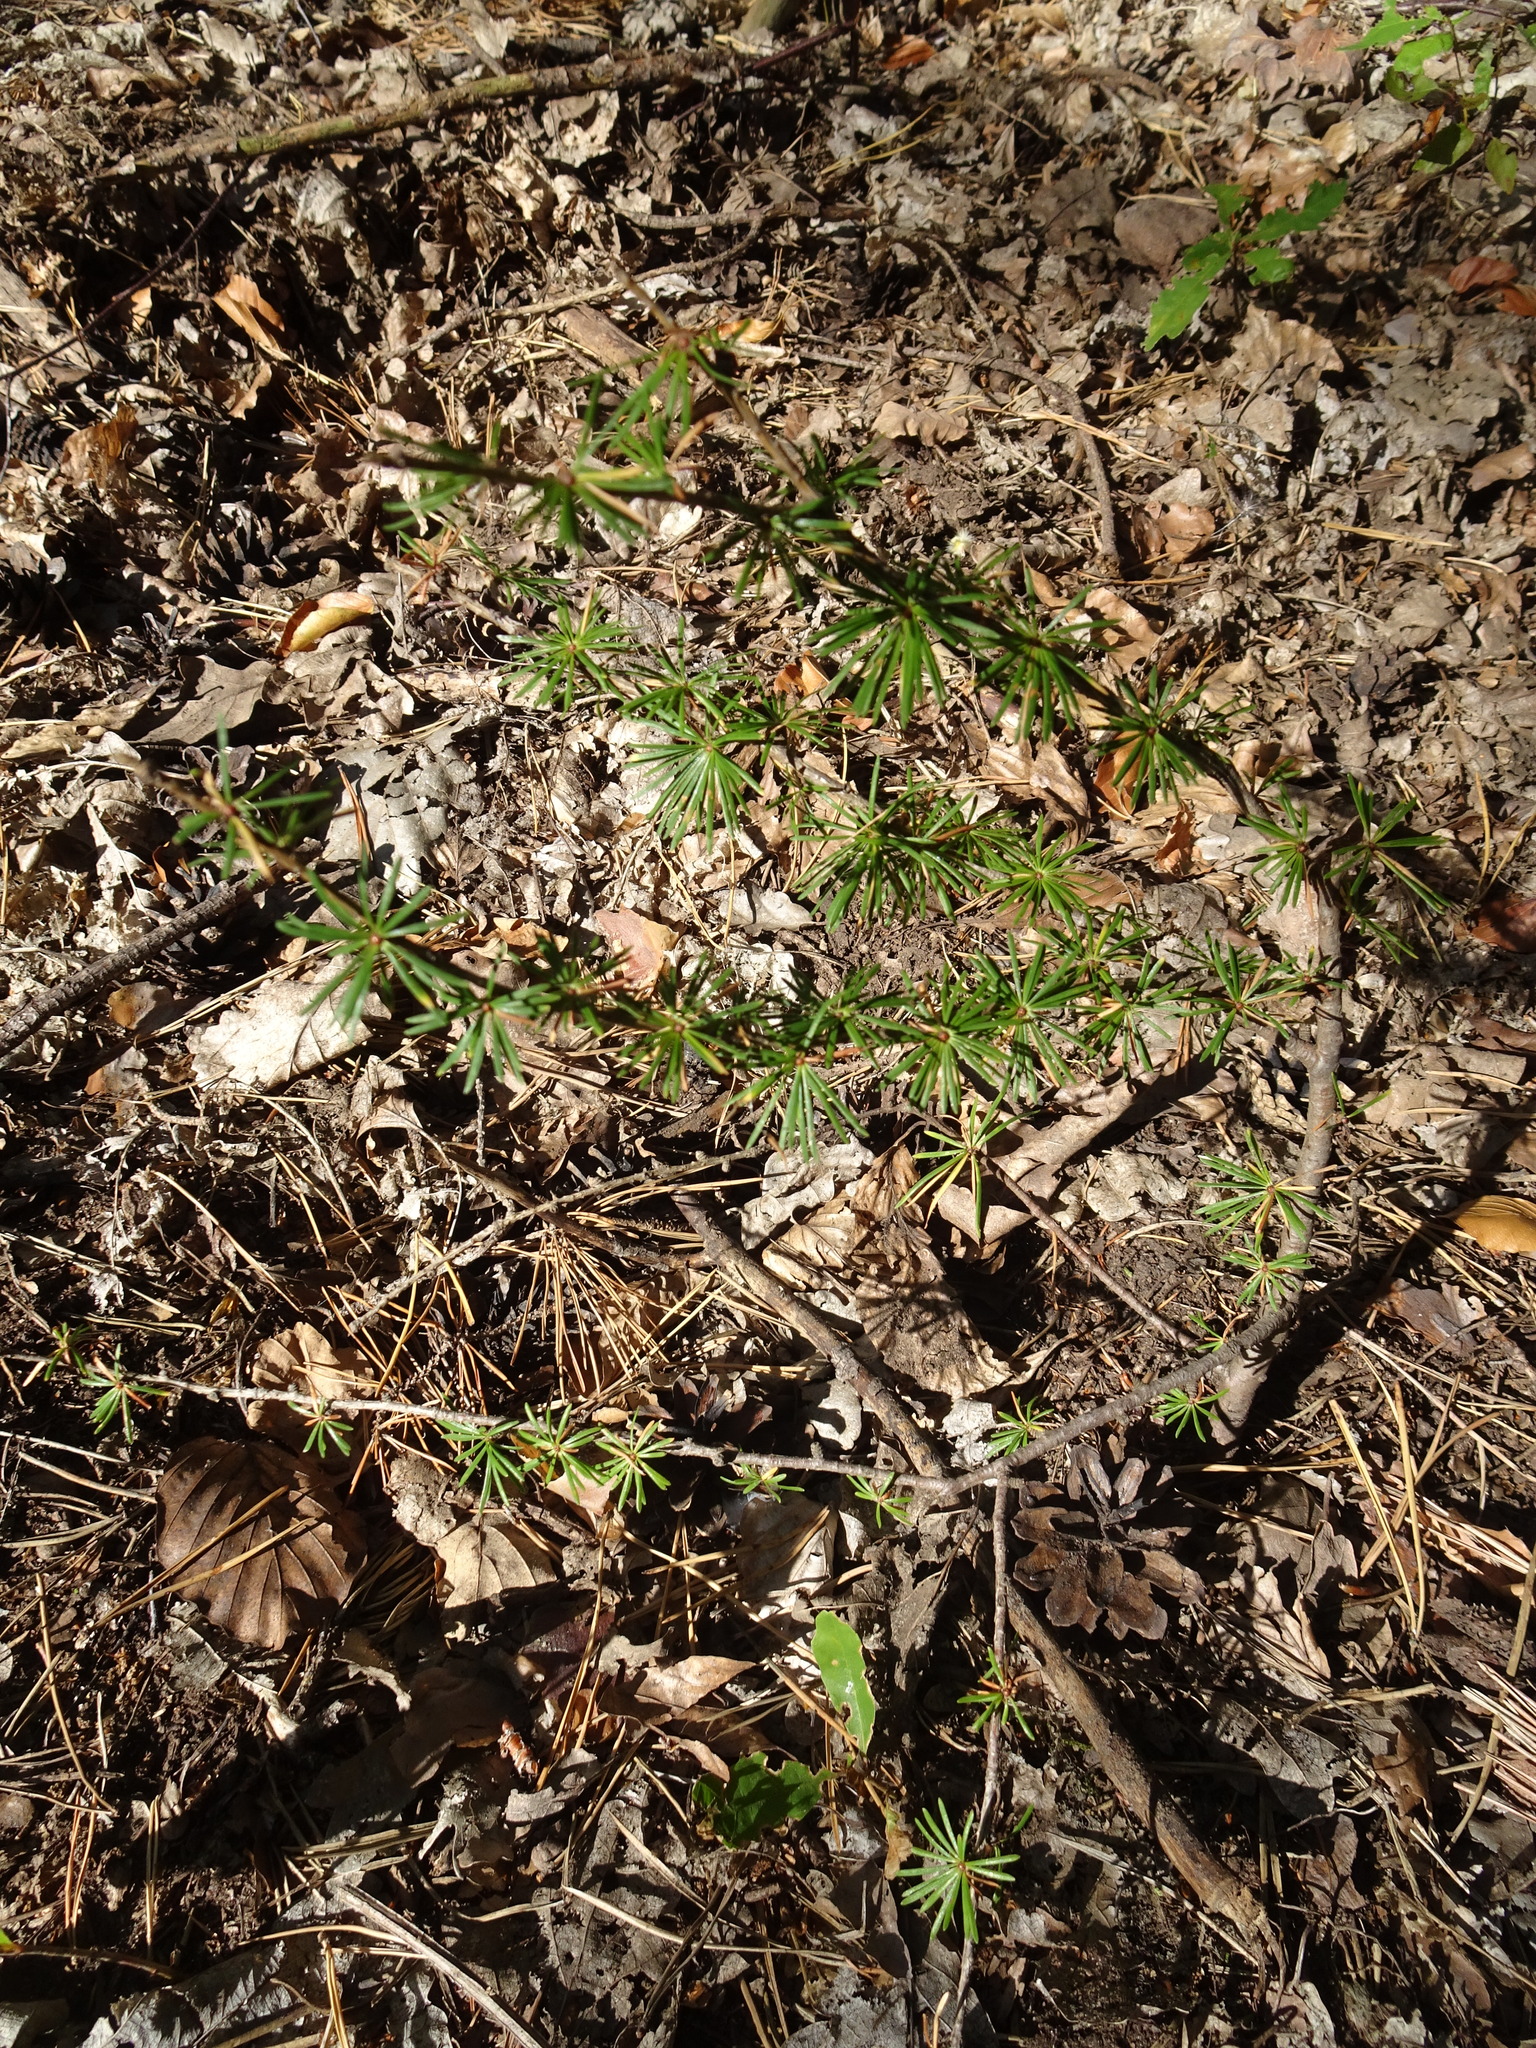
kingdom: Plantae
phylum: Tracheophyta
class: Pinopsida
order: Pinales
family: Pinaceae
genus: Larix
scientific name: Larix decidua
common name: European larch
